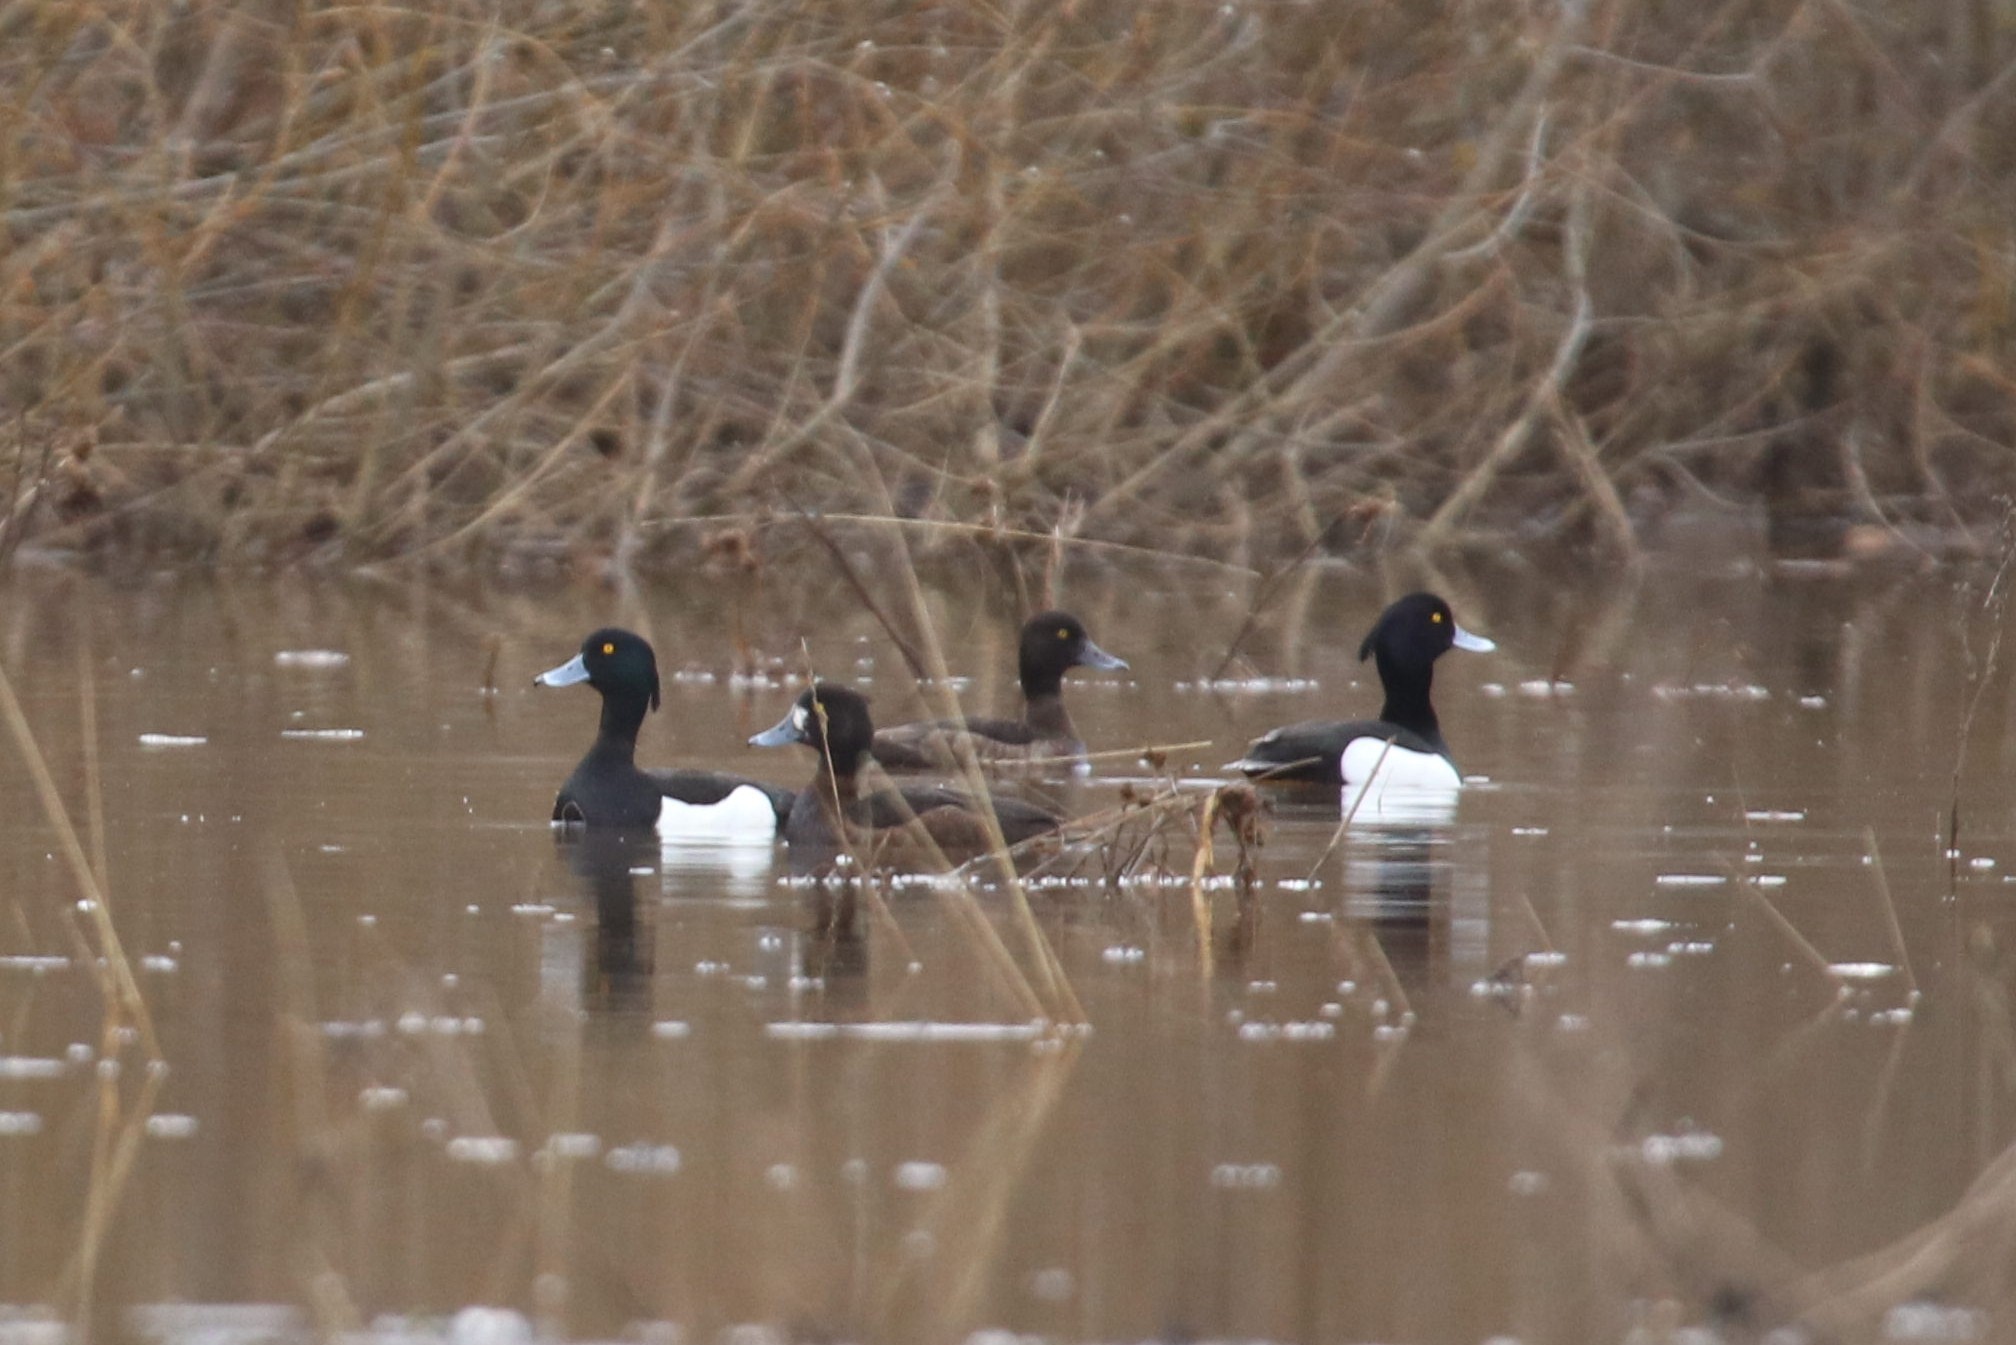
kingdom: Animalia
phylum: Chordata
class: Aves
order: Anseriformes
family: Anatidae
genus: Aythya
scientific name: Aythya fuligula
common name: Tufted duck
